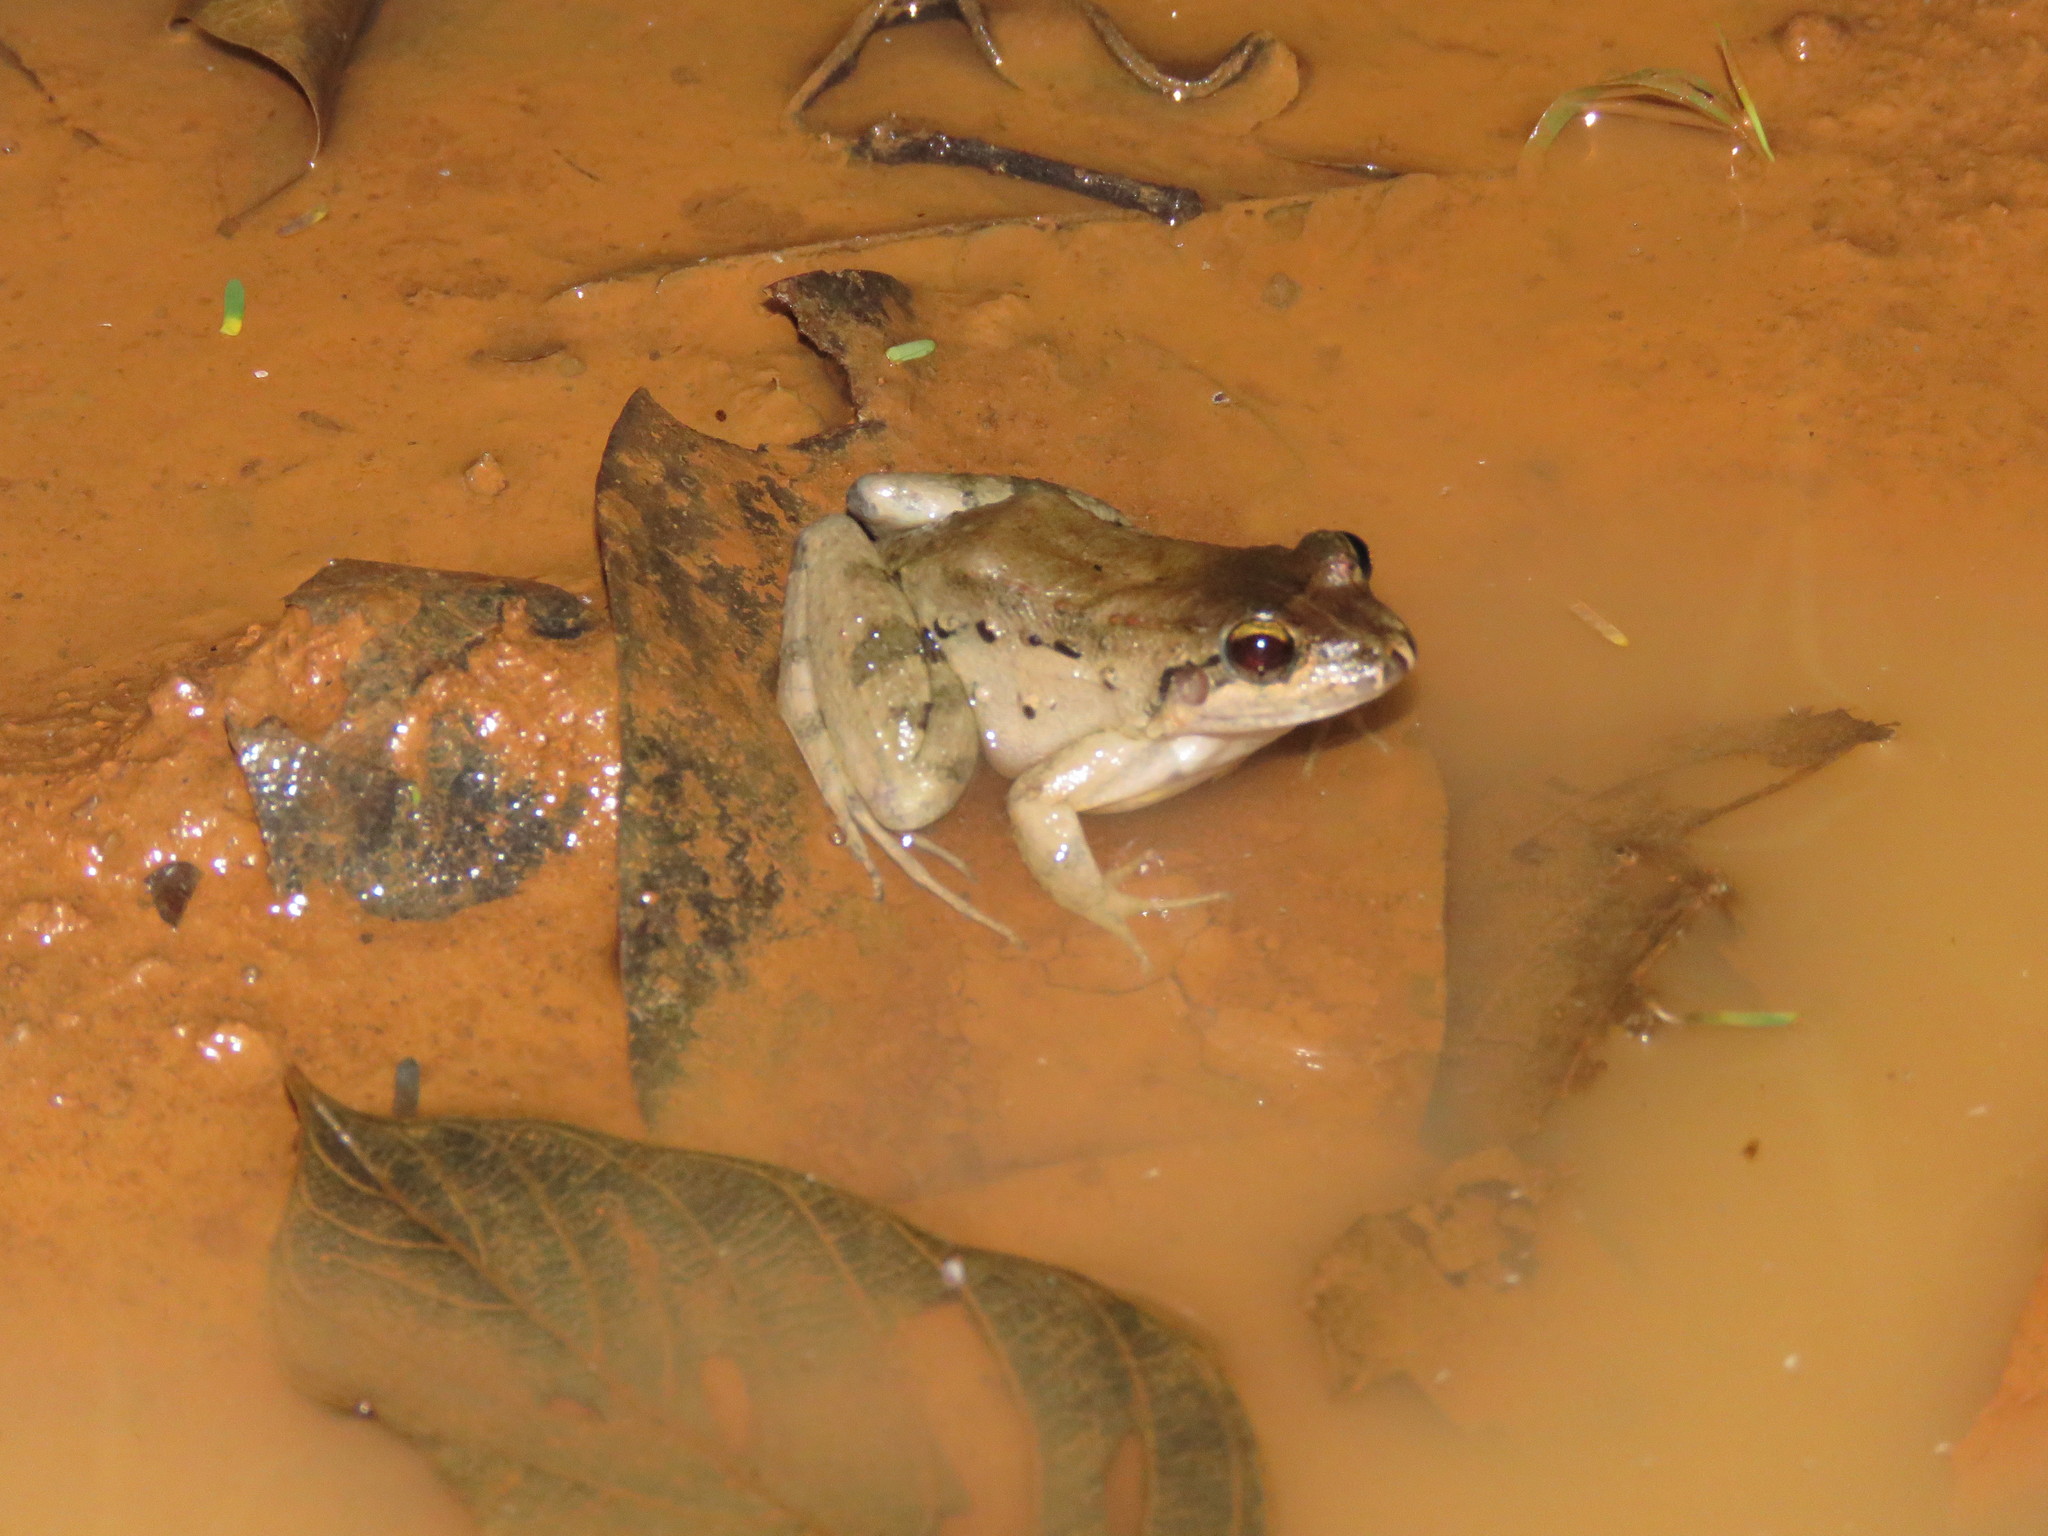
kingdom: Animalia
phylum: Chordata
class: Amphibia
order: Anura
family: Leptodactylidae
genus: Leptodactylus
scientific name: Leptodactylus leptodactyloides
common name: Common thin-toed frog
